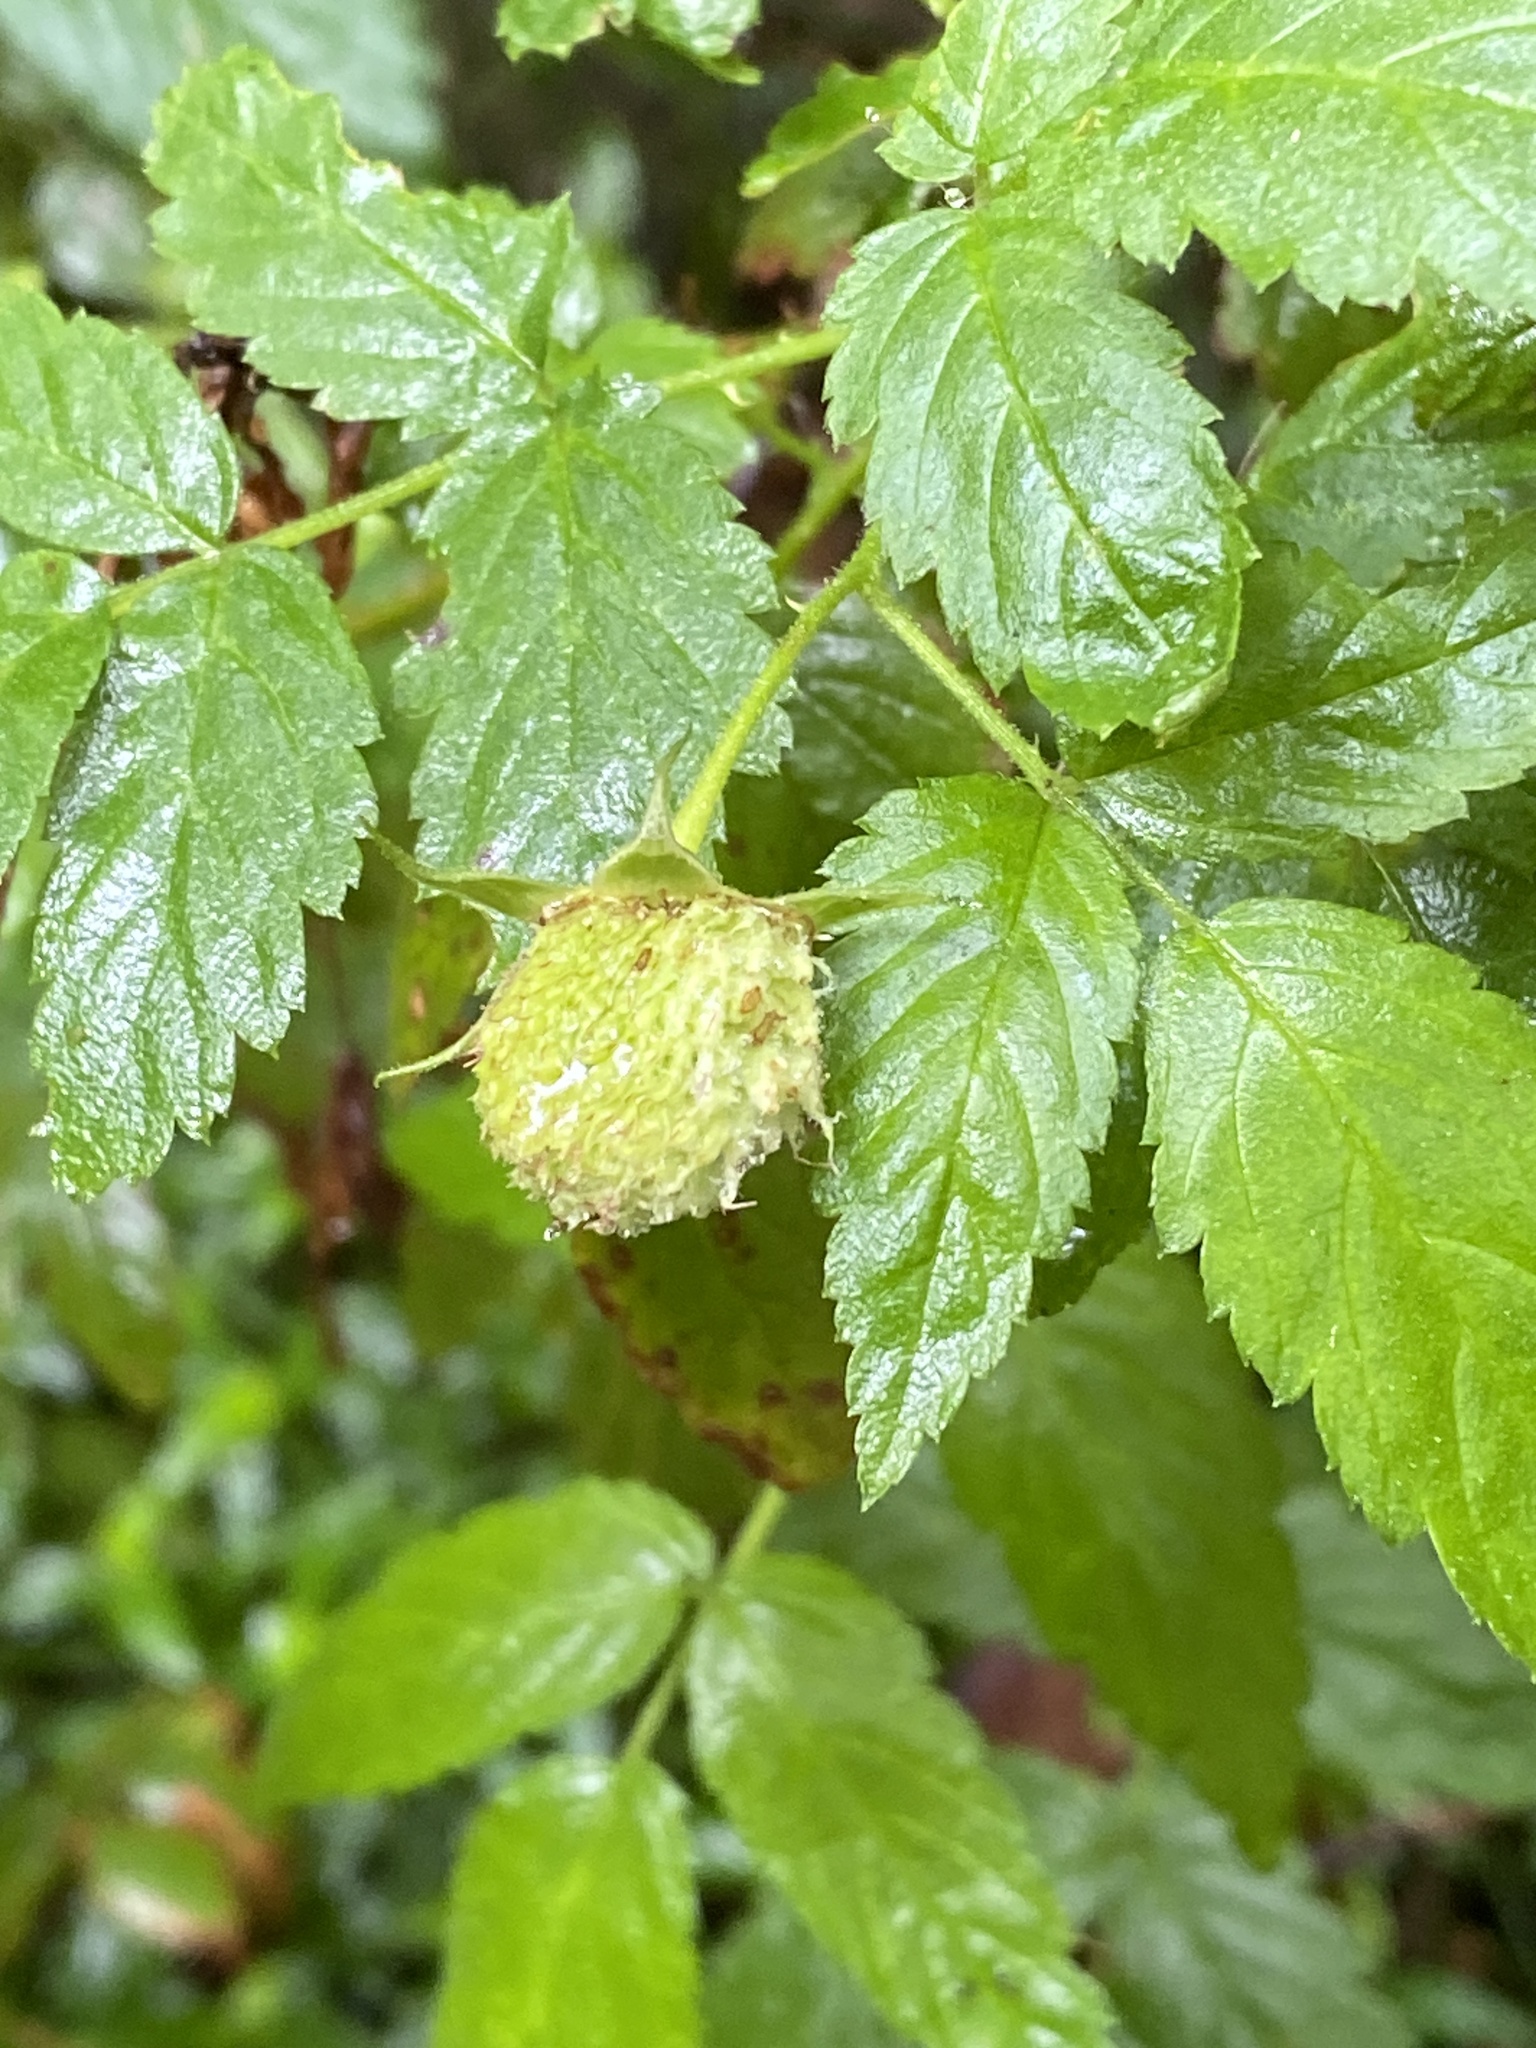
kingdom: Plantae
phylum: Tracheophyta
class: Magnoliopsida
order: Rosales
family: Rosaceae
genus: Rubus
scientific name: Rubus rosifolius
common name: Roseleaf raspberry
